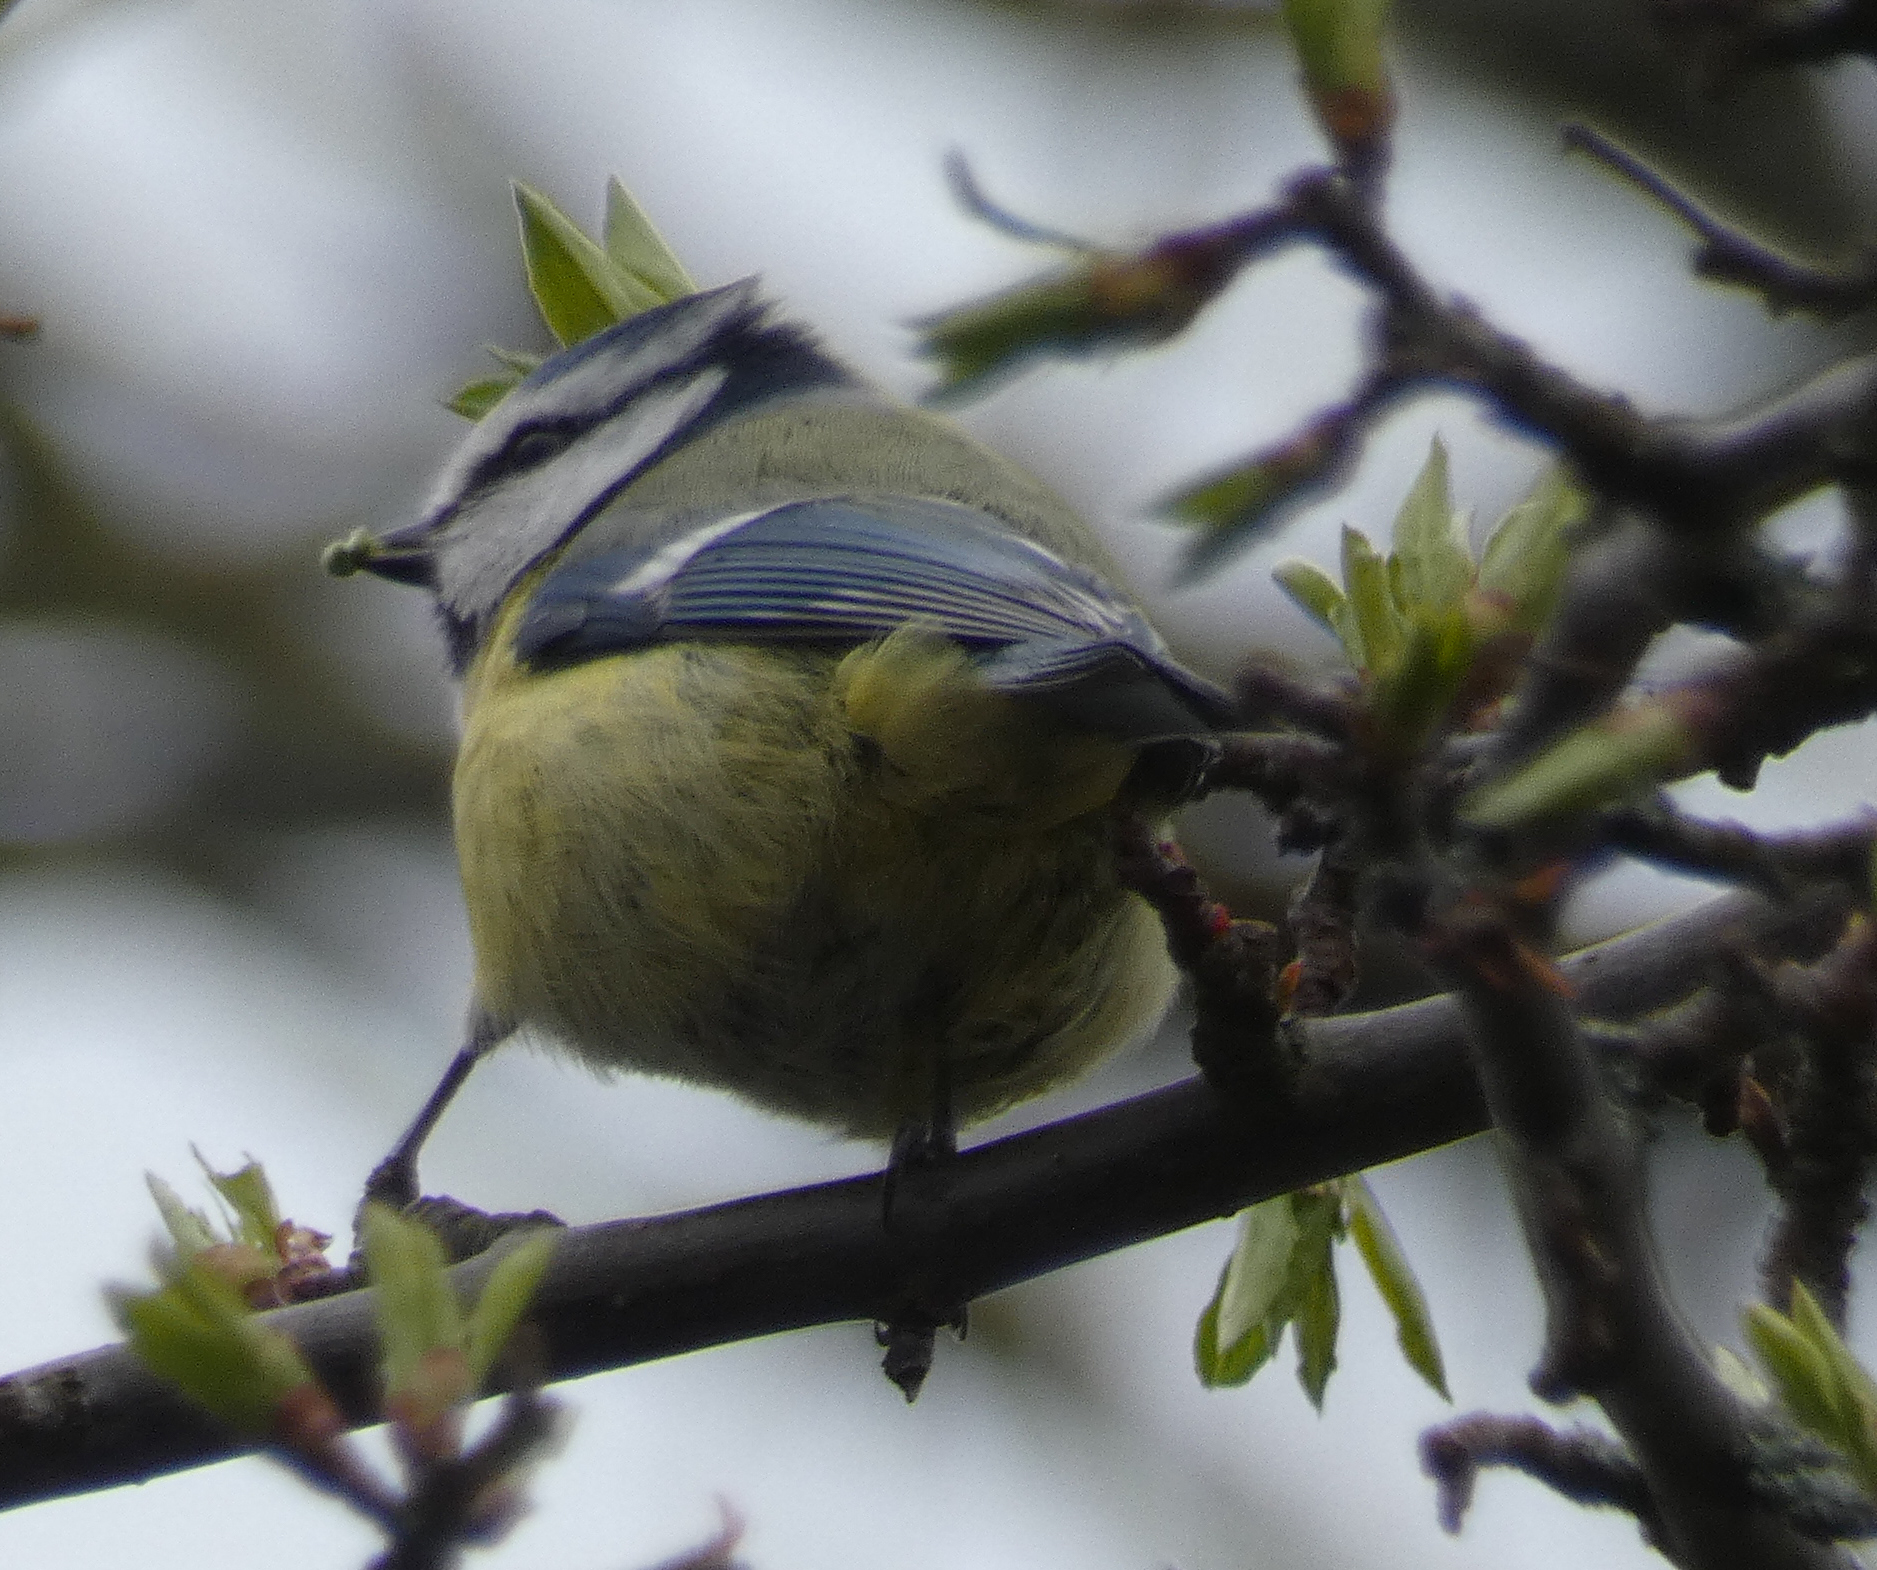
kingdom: Animalia
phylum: Chordata
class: Aves
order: Passeriformes
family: Paridae
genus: Cyanistes
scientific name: Cyanistes caeruleus
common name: Eurasian blue tit
